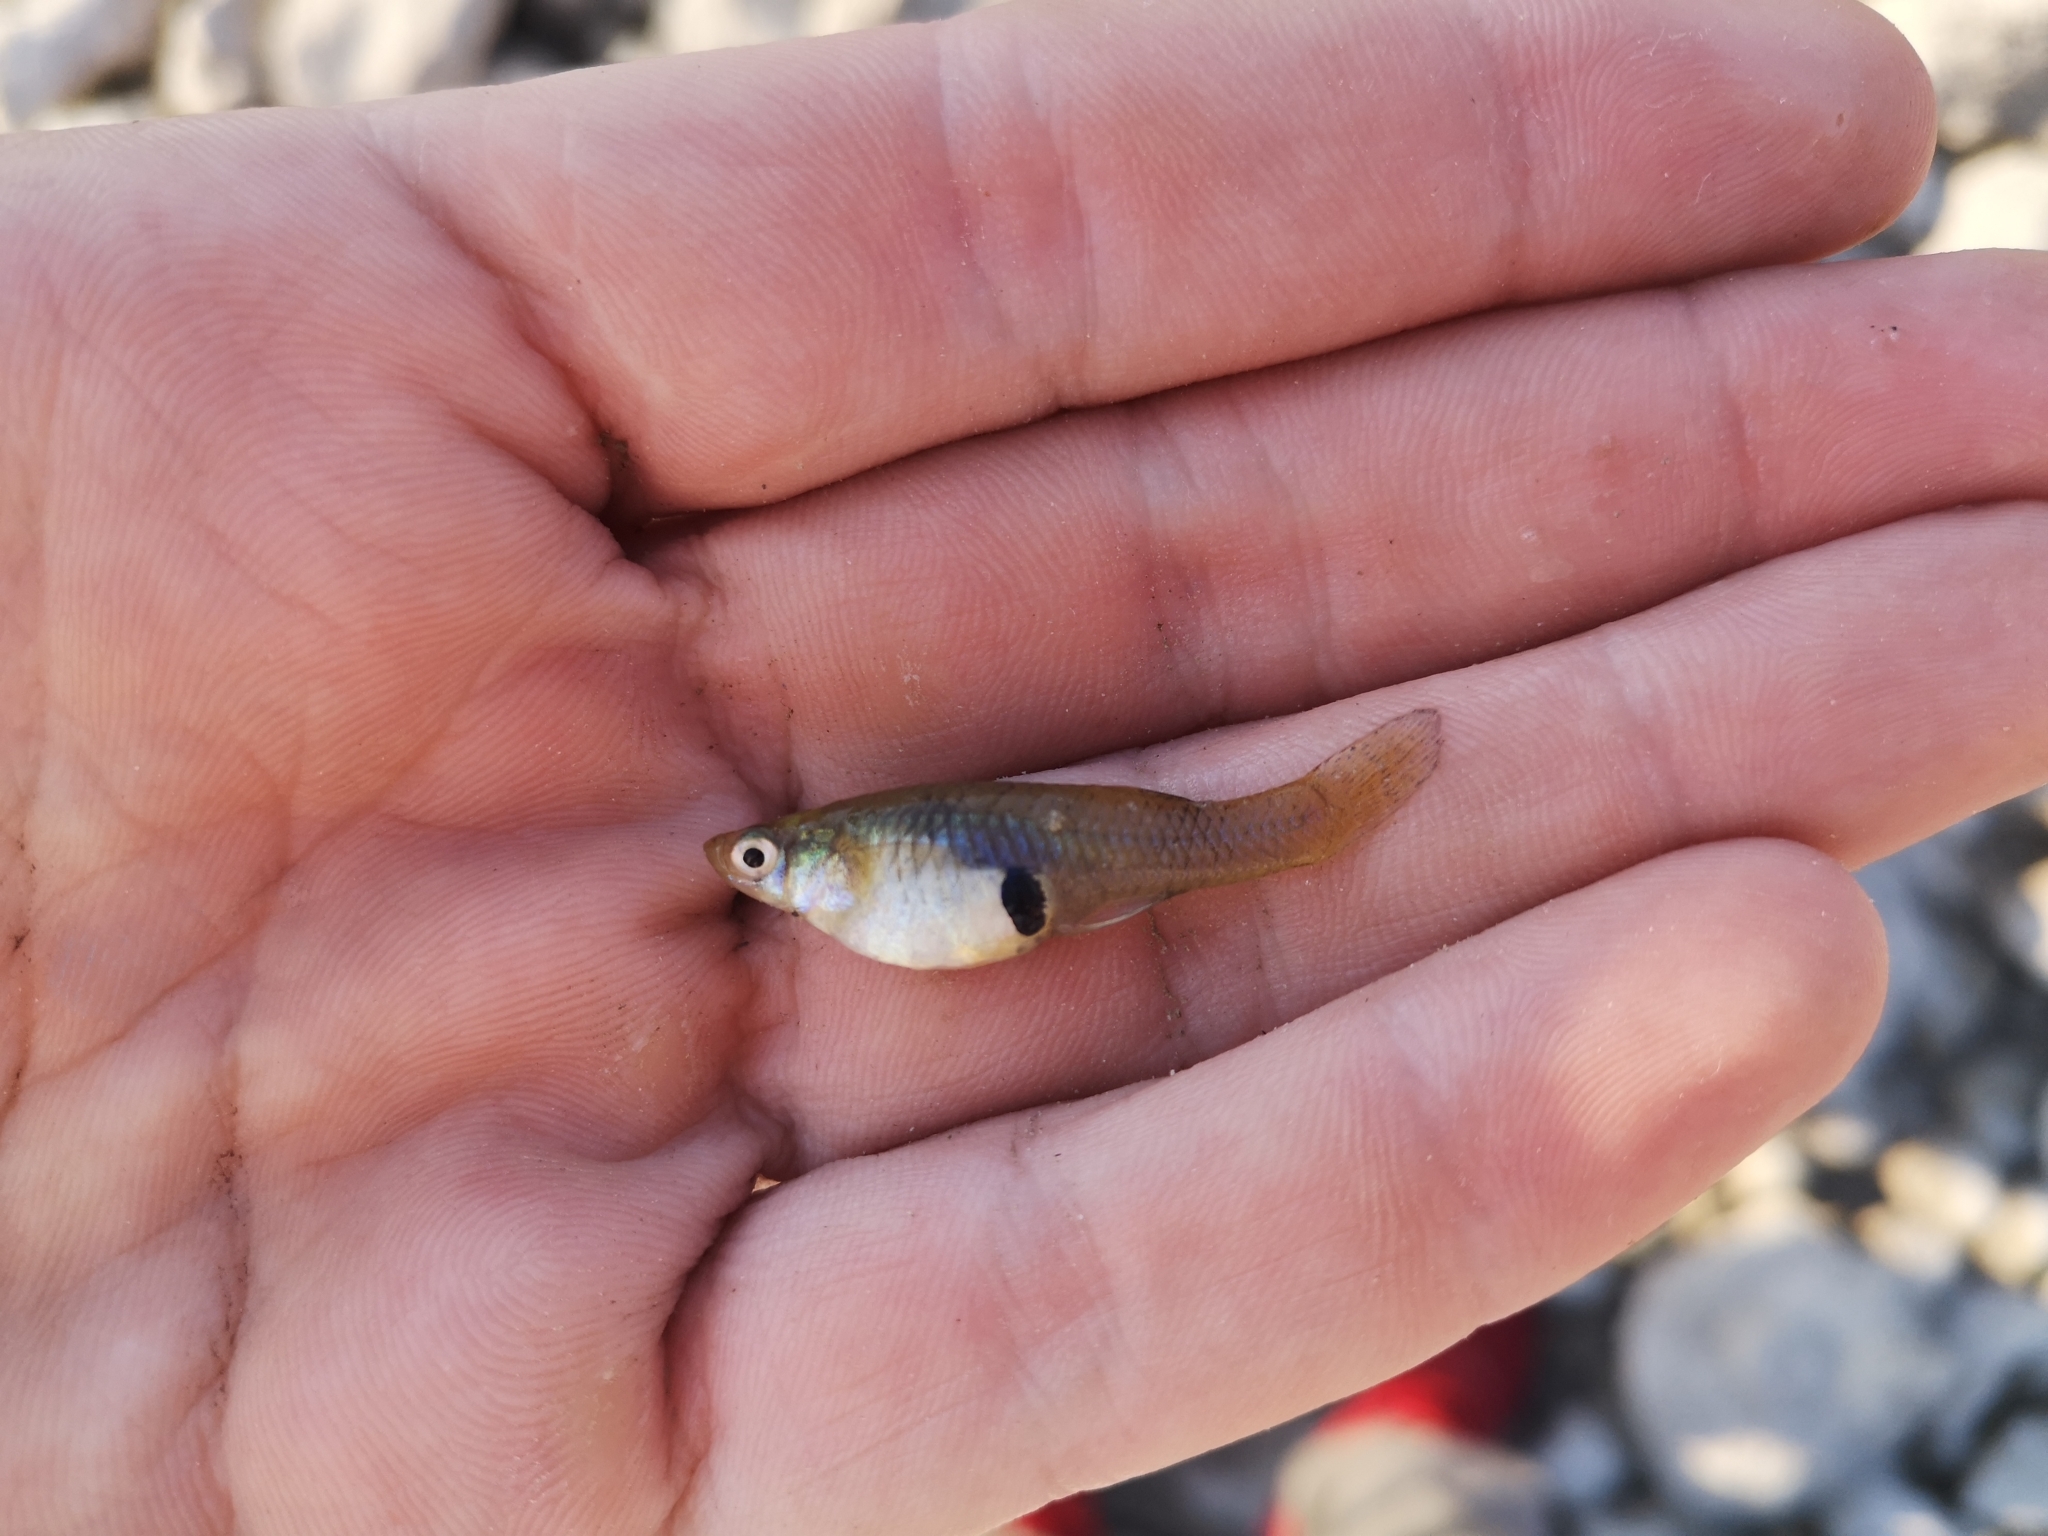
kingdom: Animalia
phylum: Chordata
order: Cyprinodontiformes
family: Poeciliidae
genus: Gambusia
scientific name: Gambusia holbrooki
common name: Eastern mosquitofish
